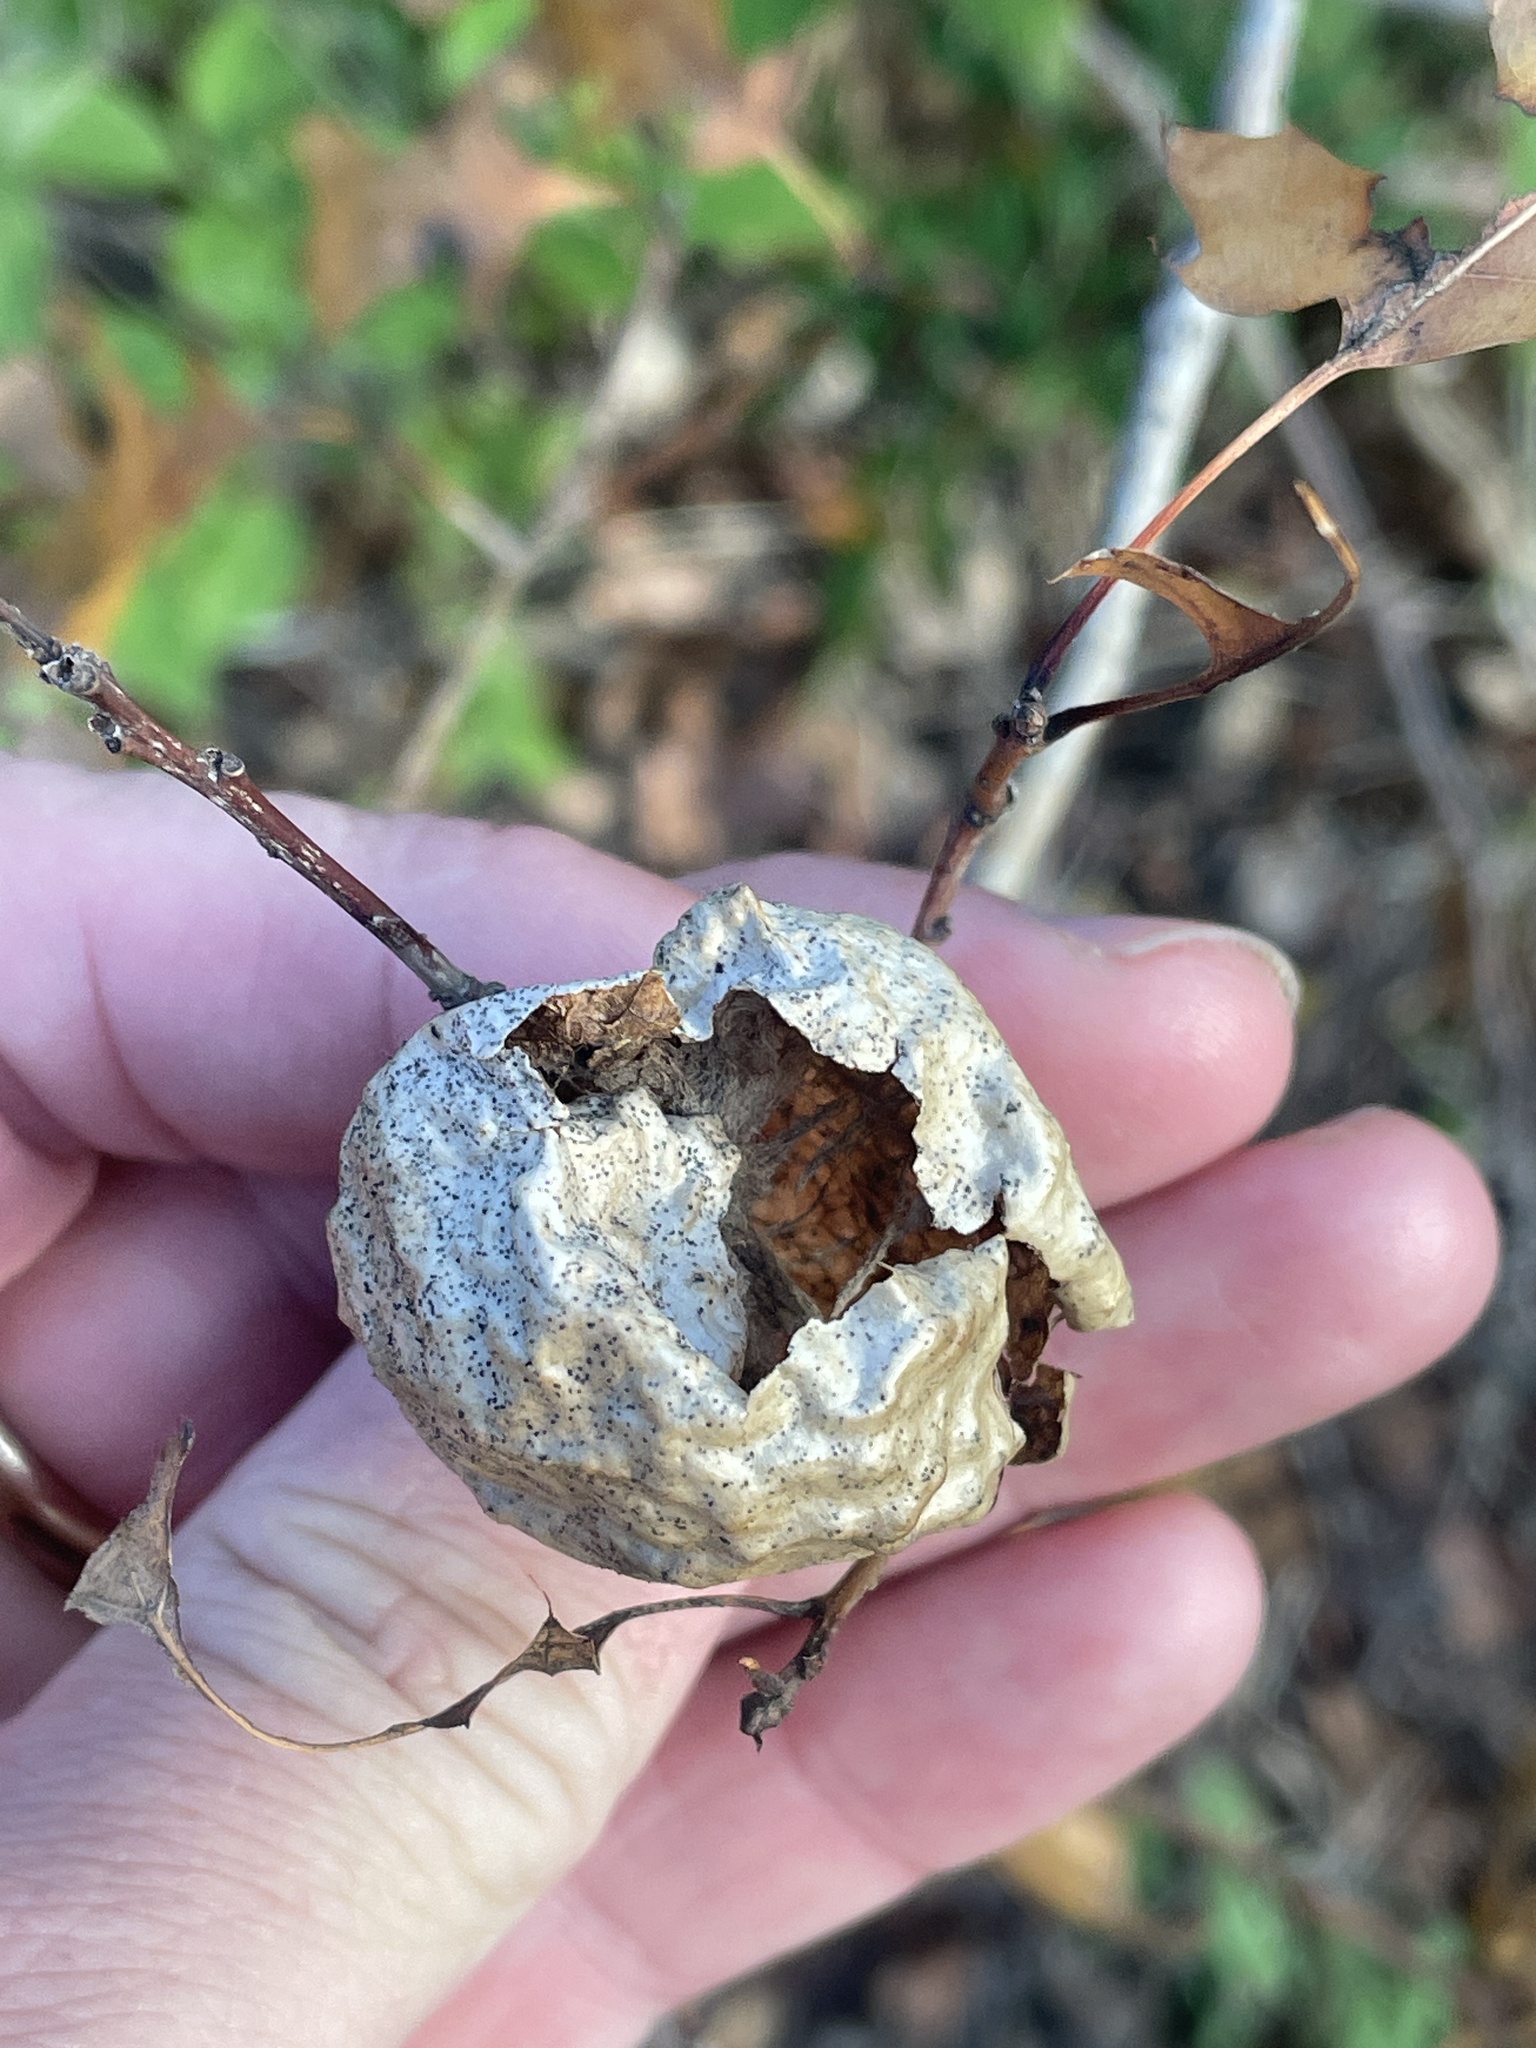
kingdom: Animalia
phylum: Arthropoda
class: Insecta
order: Hymenoptera
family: Cynipidae
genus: Amphibolips
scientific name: Amphibolips
